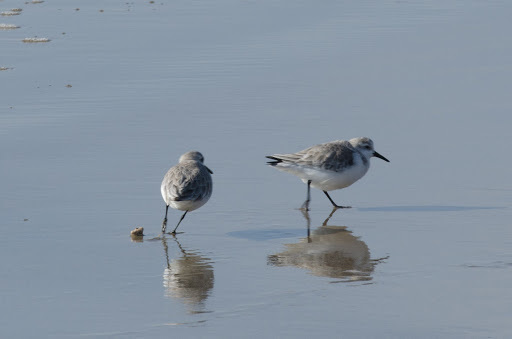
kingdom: Animalia
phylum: Chordata
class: Aves
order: Charadriiformes
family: Scolopacidae
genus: Calidris
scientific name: Calidris alba
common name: Sanderling
